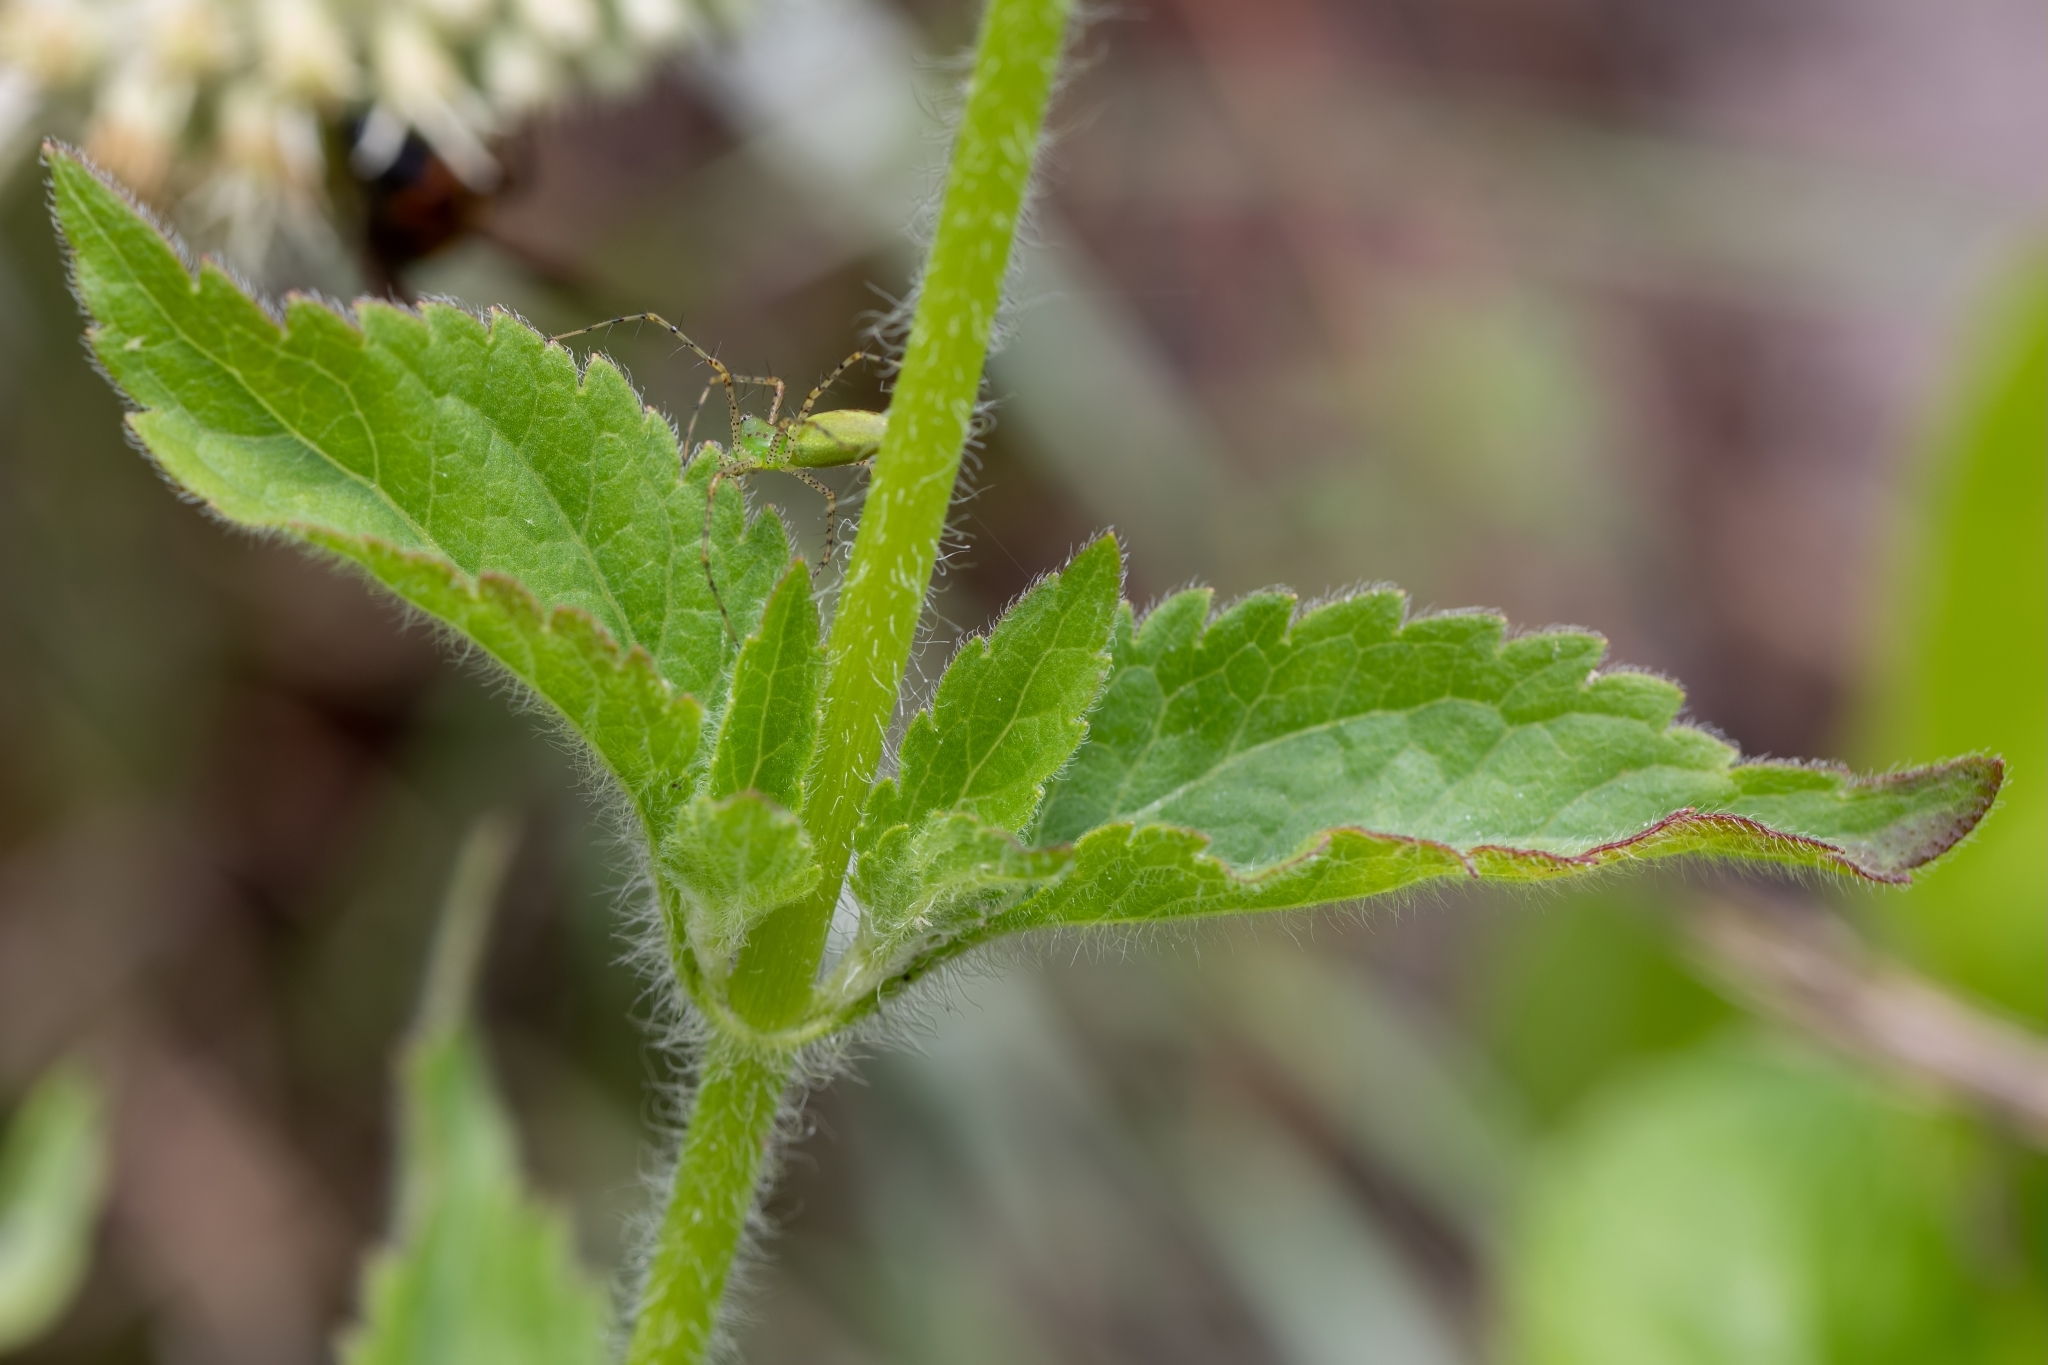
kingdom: Animalia
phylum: Arthropoda
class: Arachnida
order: Araneae
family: Oxyopidae
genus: Peucetia
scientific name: Peucetia viridans
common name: Lynx spiders
